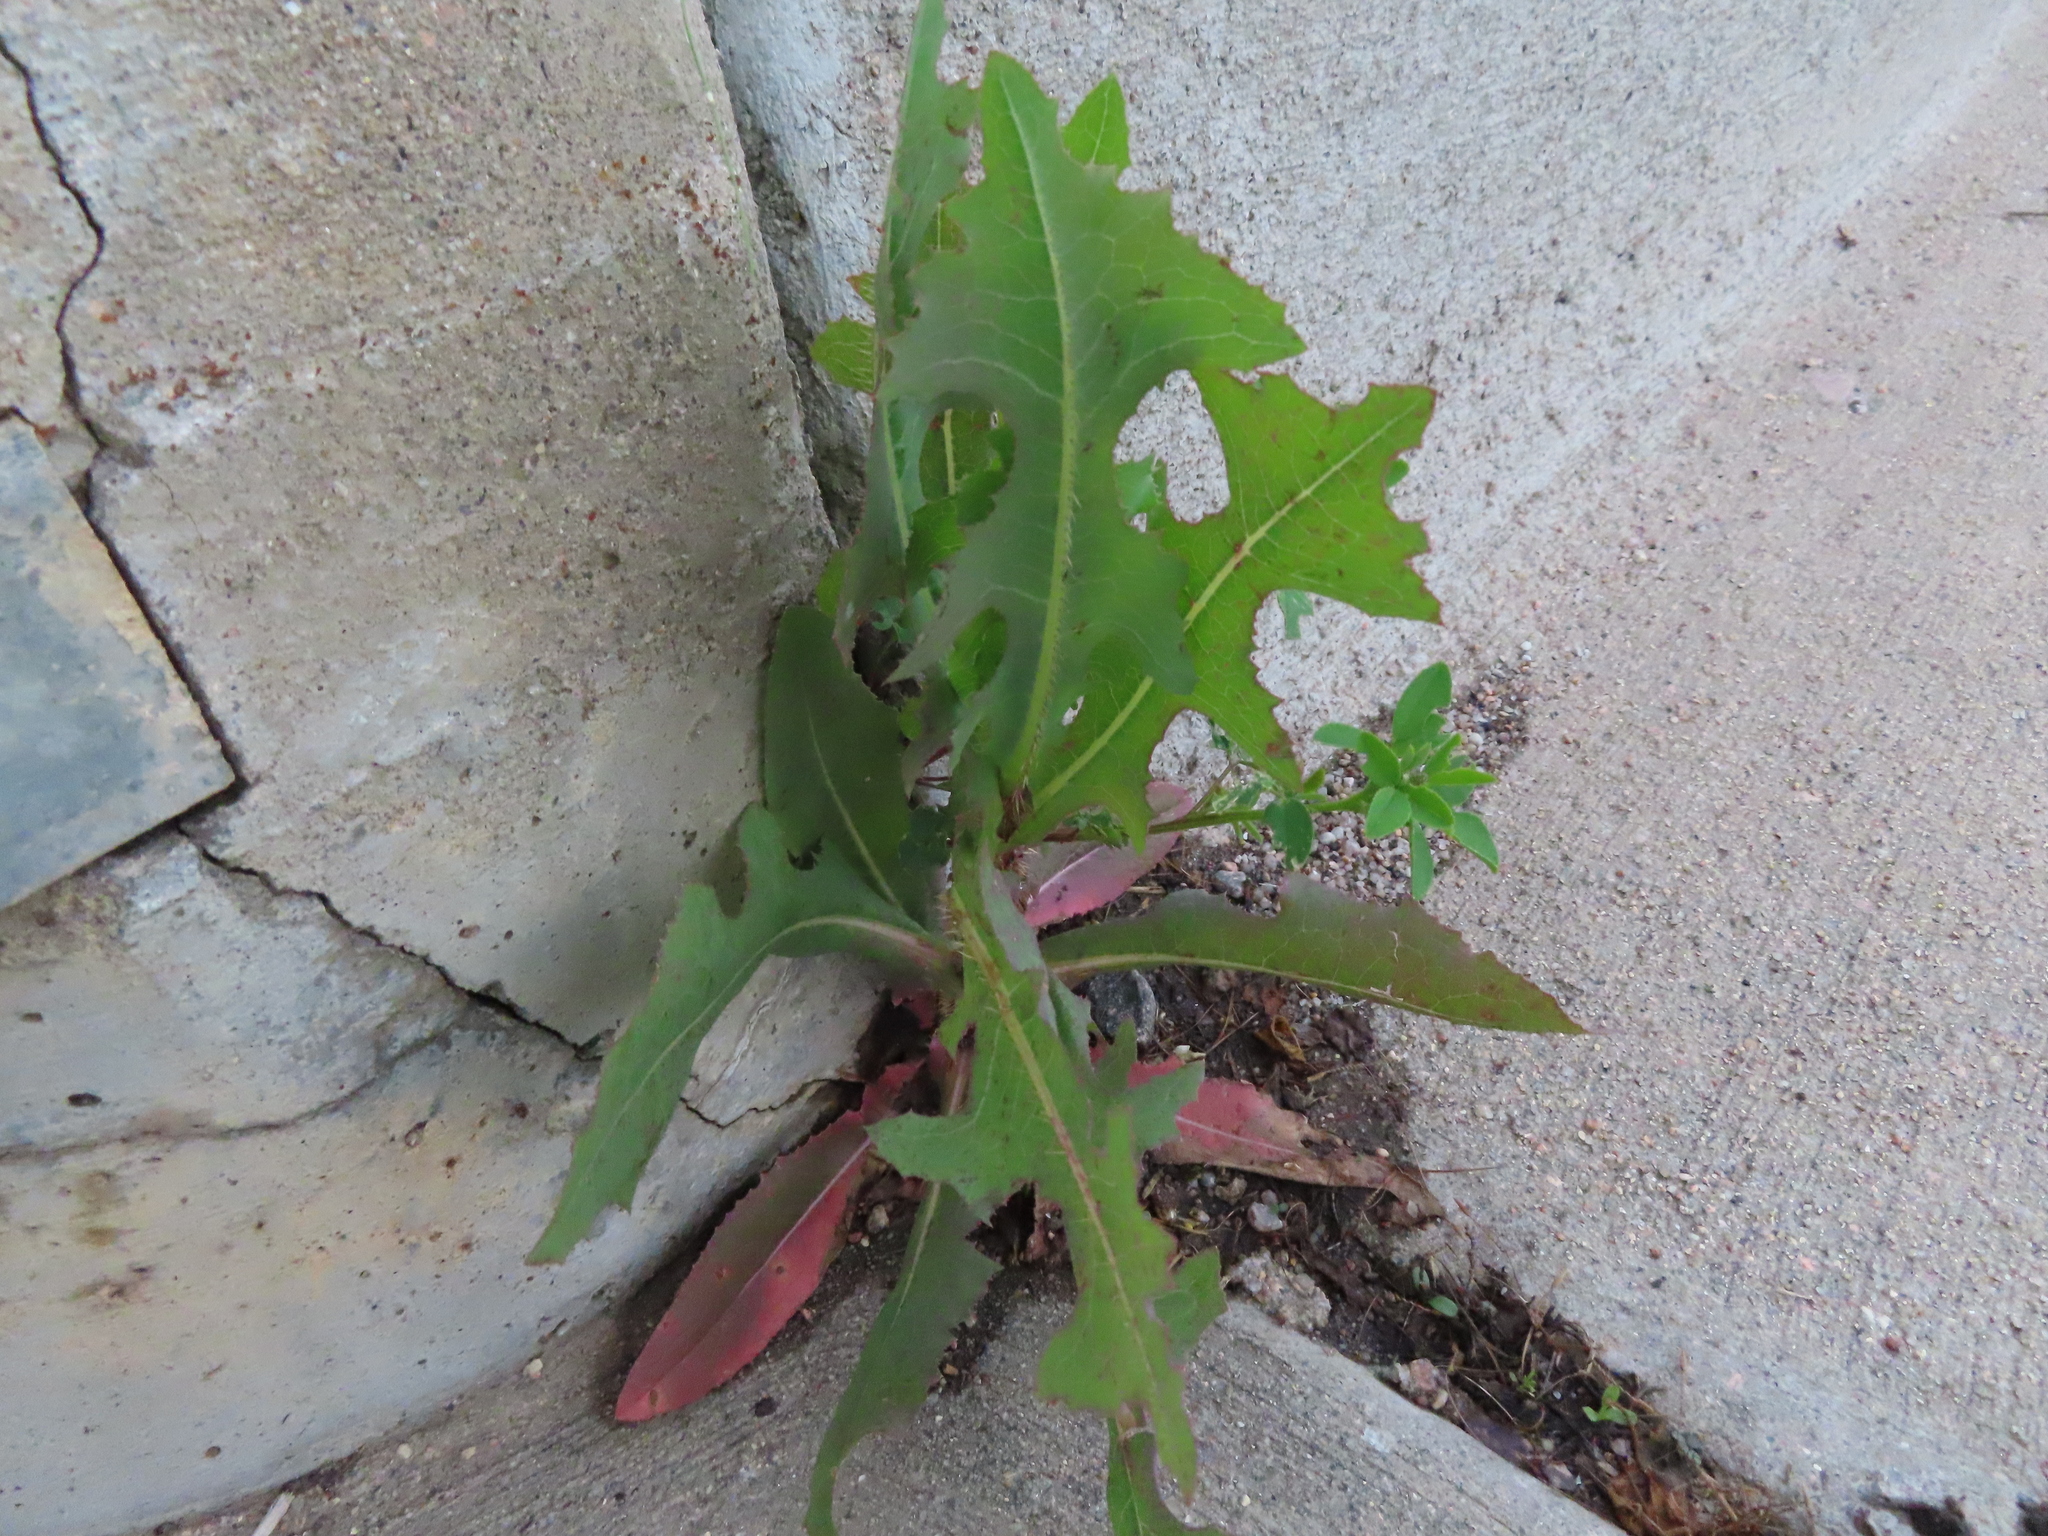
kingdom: Plantae
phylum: Tracheophyta
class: Magnoliopsida
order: Asterales
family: Asteraceae
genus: Lactuca
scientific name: Lactuca serriola
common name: Prickly lettuce
